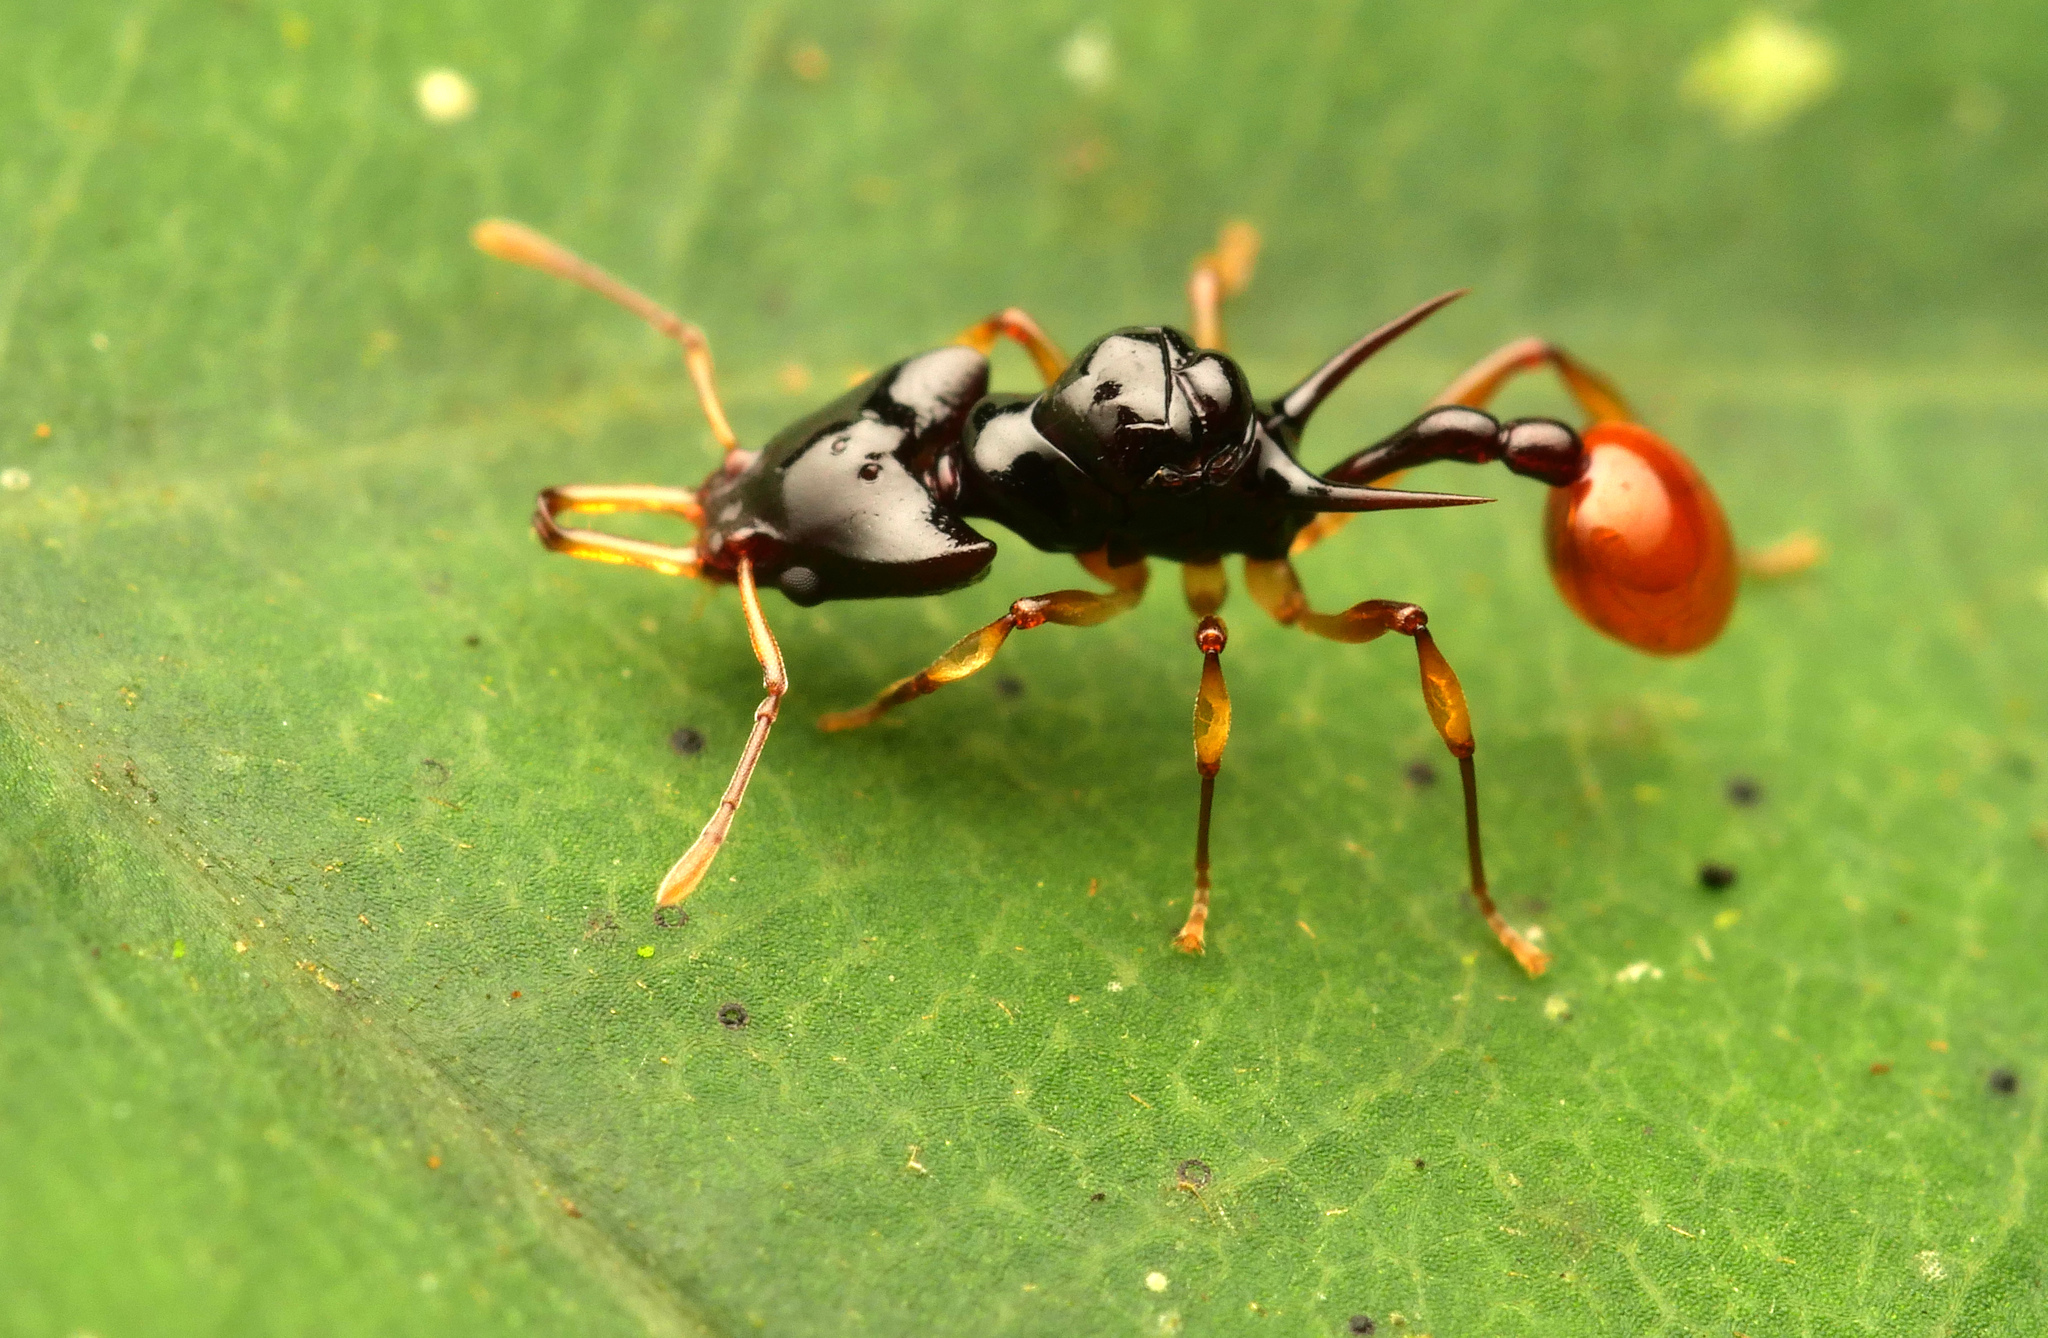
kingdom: Animalia
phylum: Arthropoda
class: Insecta
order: Hymenoptera
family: Formicidae
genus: Orectognathus
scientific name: Orectognathus szentivanyi
